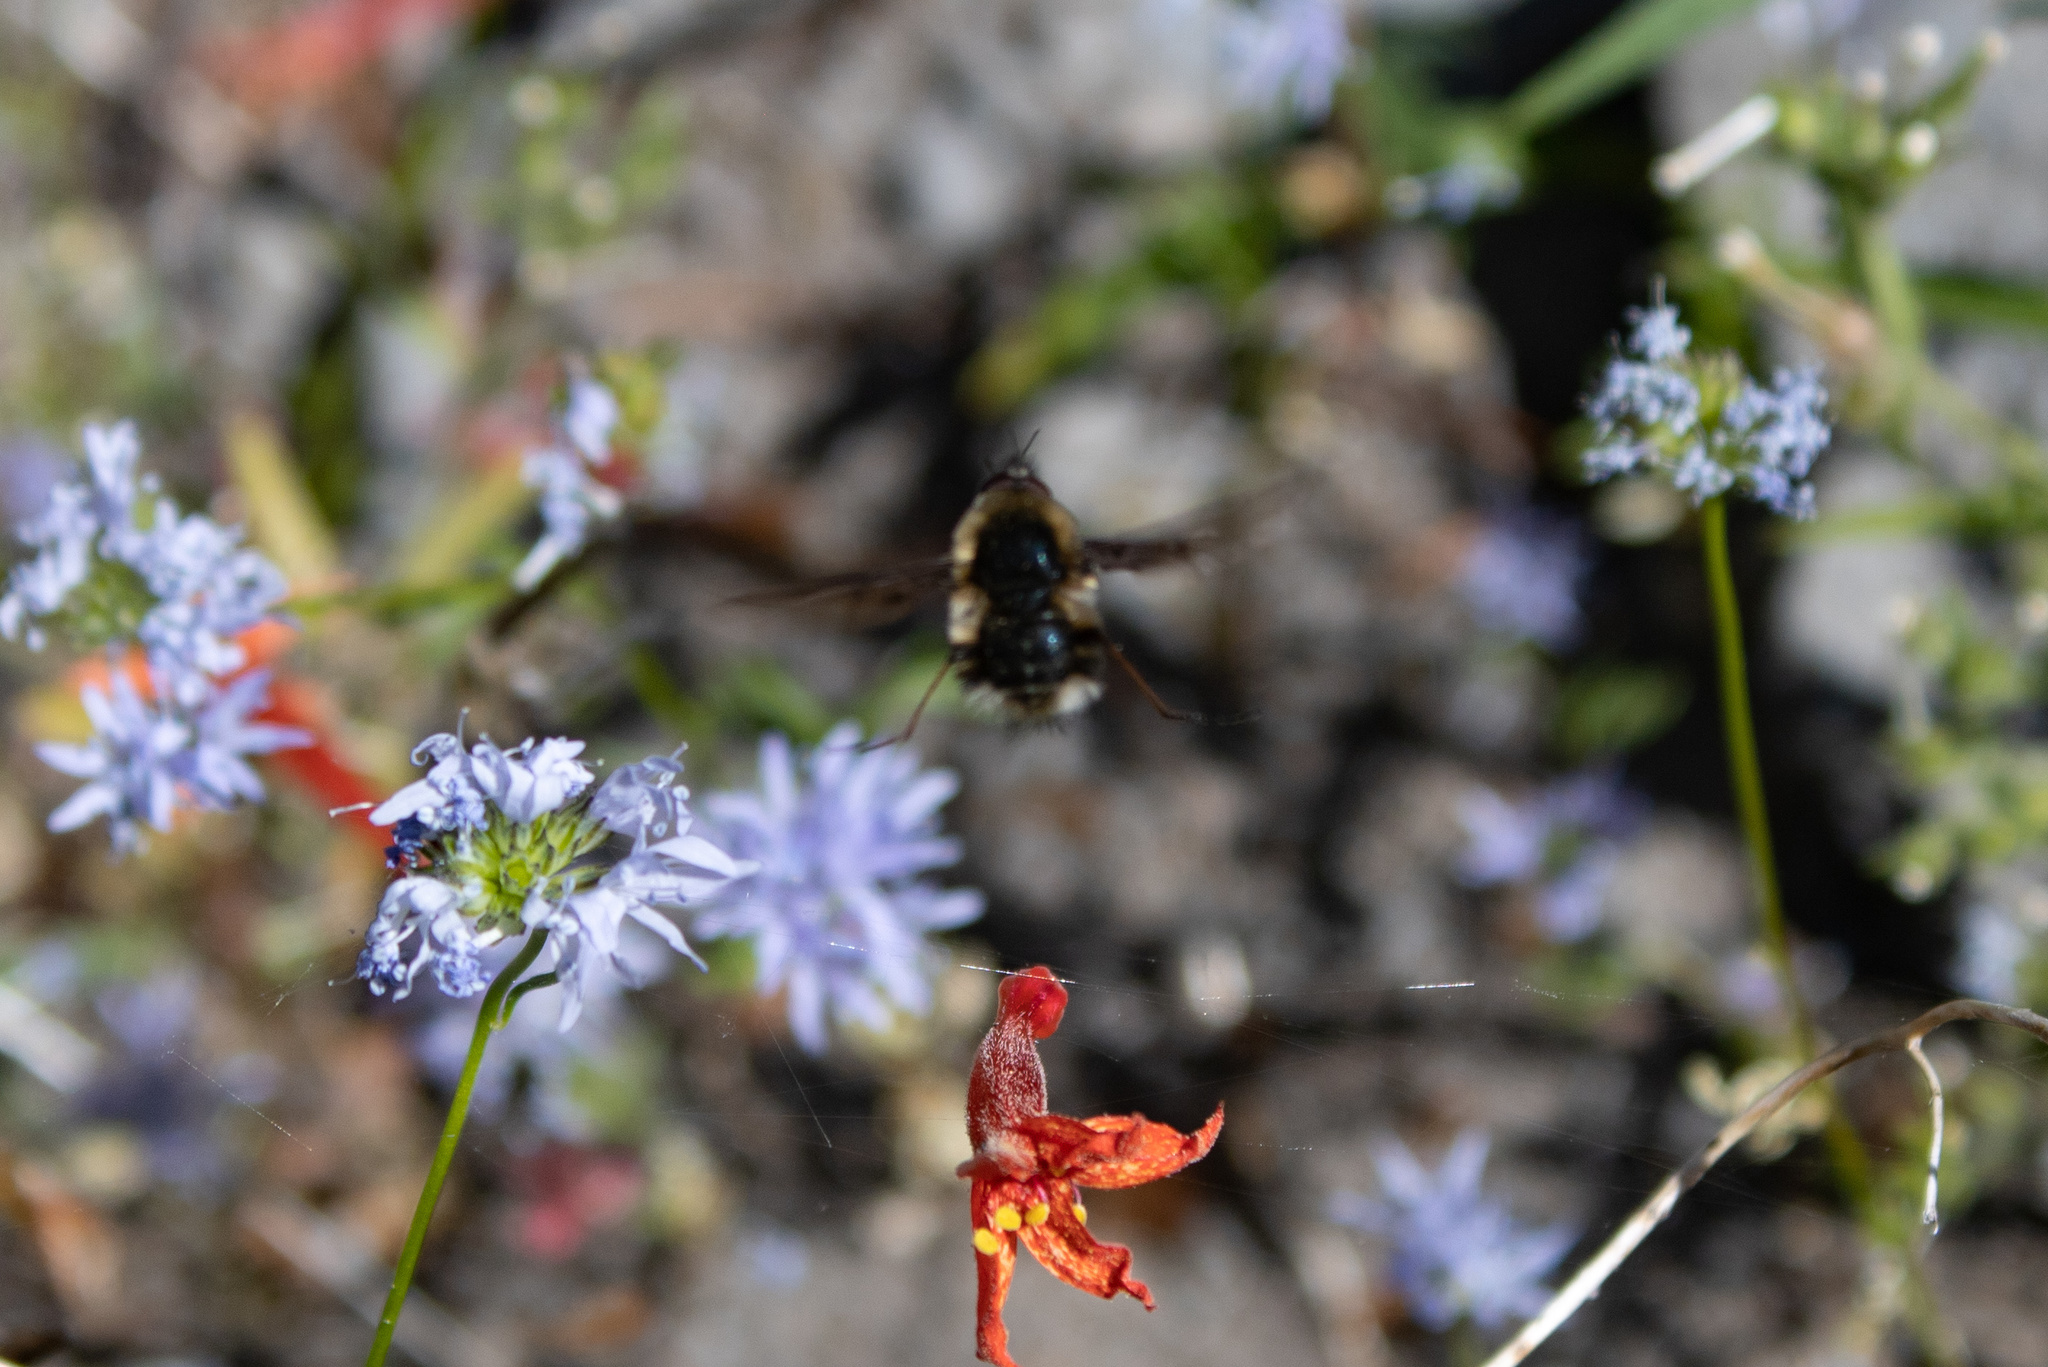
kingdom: Animalia
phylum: Arthropoda
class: Insecta
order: Diptera
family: Bombyliidae
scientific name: Bombyliidae
